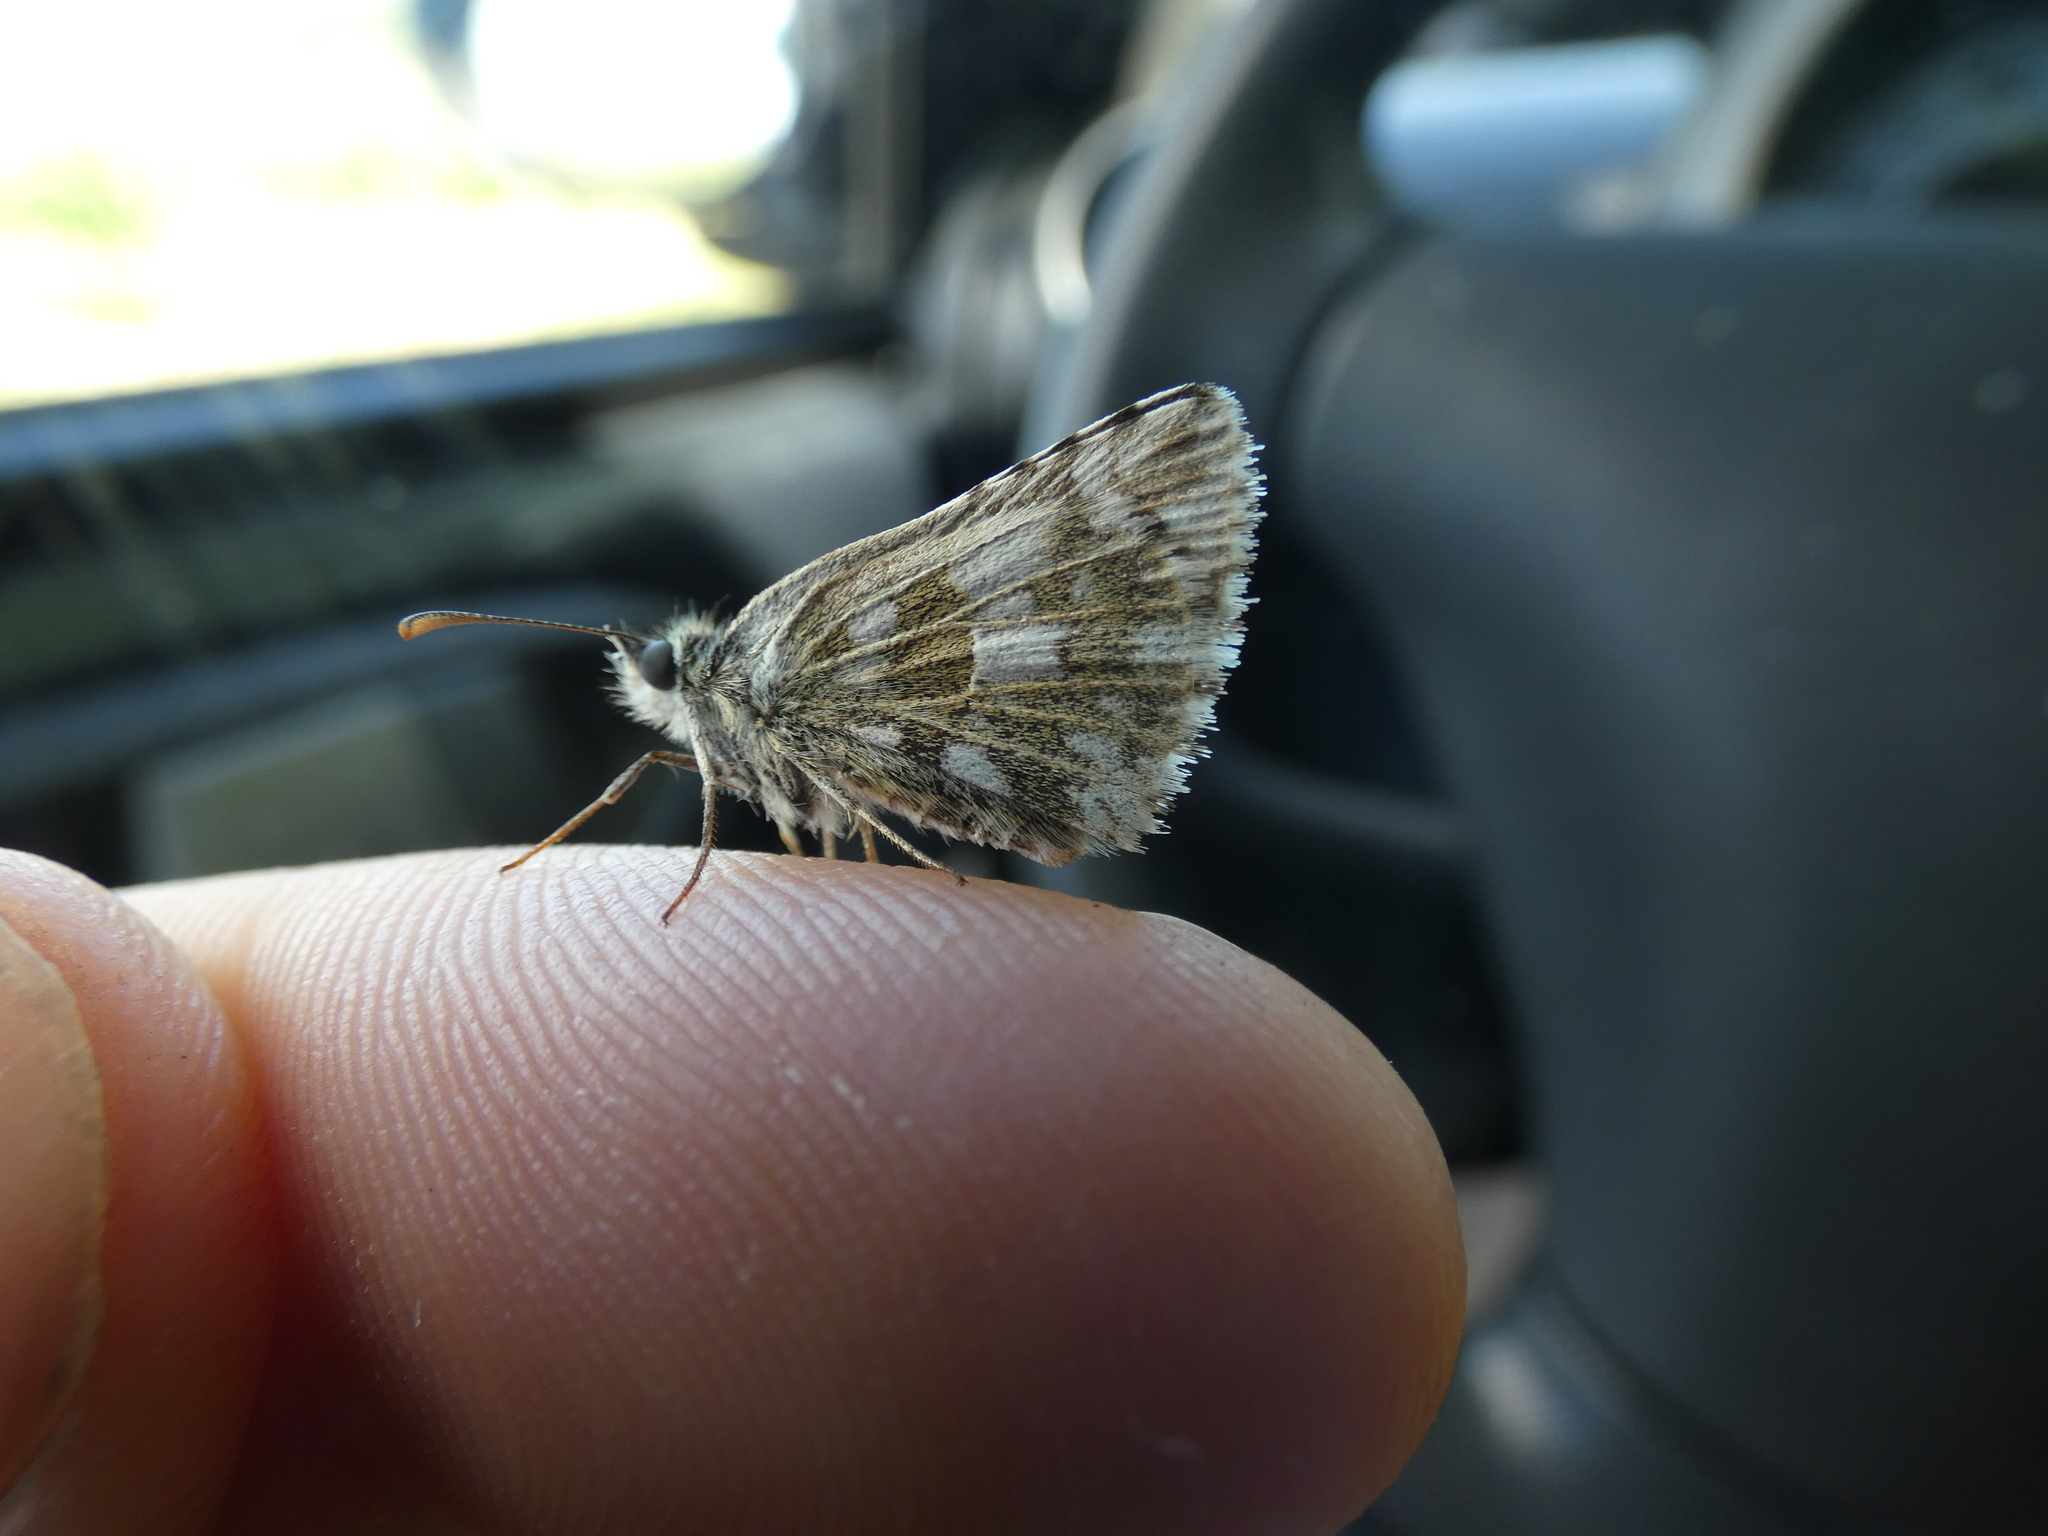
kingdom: Animalia
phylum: Arthropoda
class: Insecta
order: Lepidoptera
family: Hesperiidae
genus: Pyrgus
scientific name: Pyrgus armoricanus
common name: Oberthür's grizzled skipper
